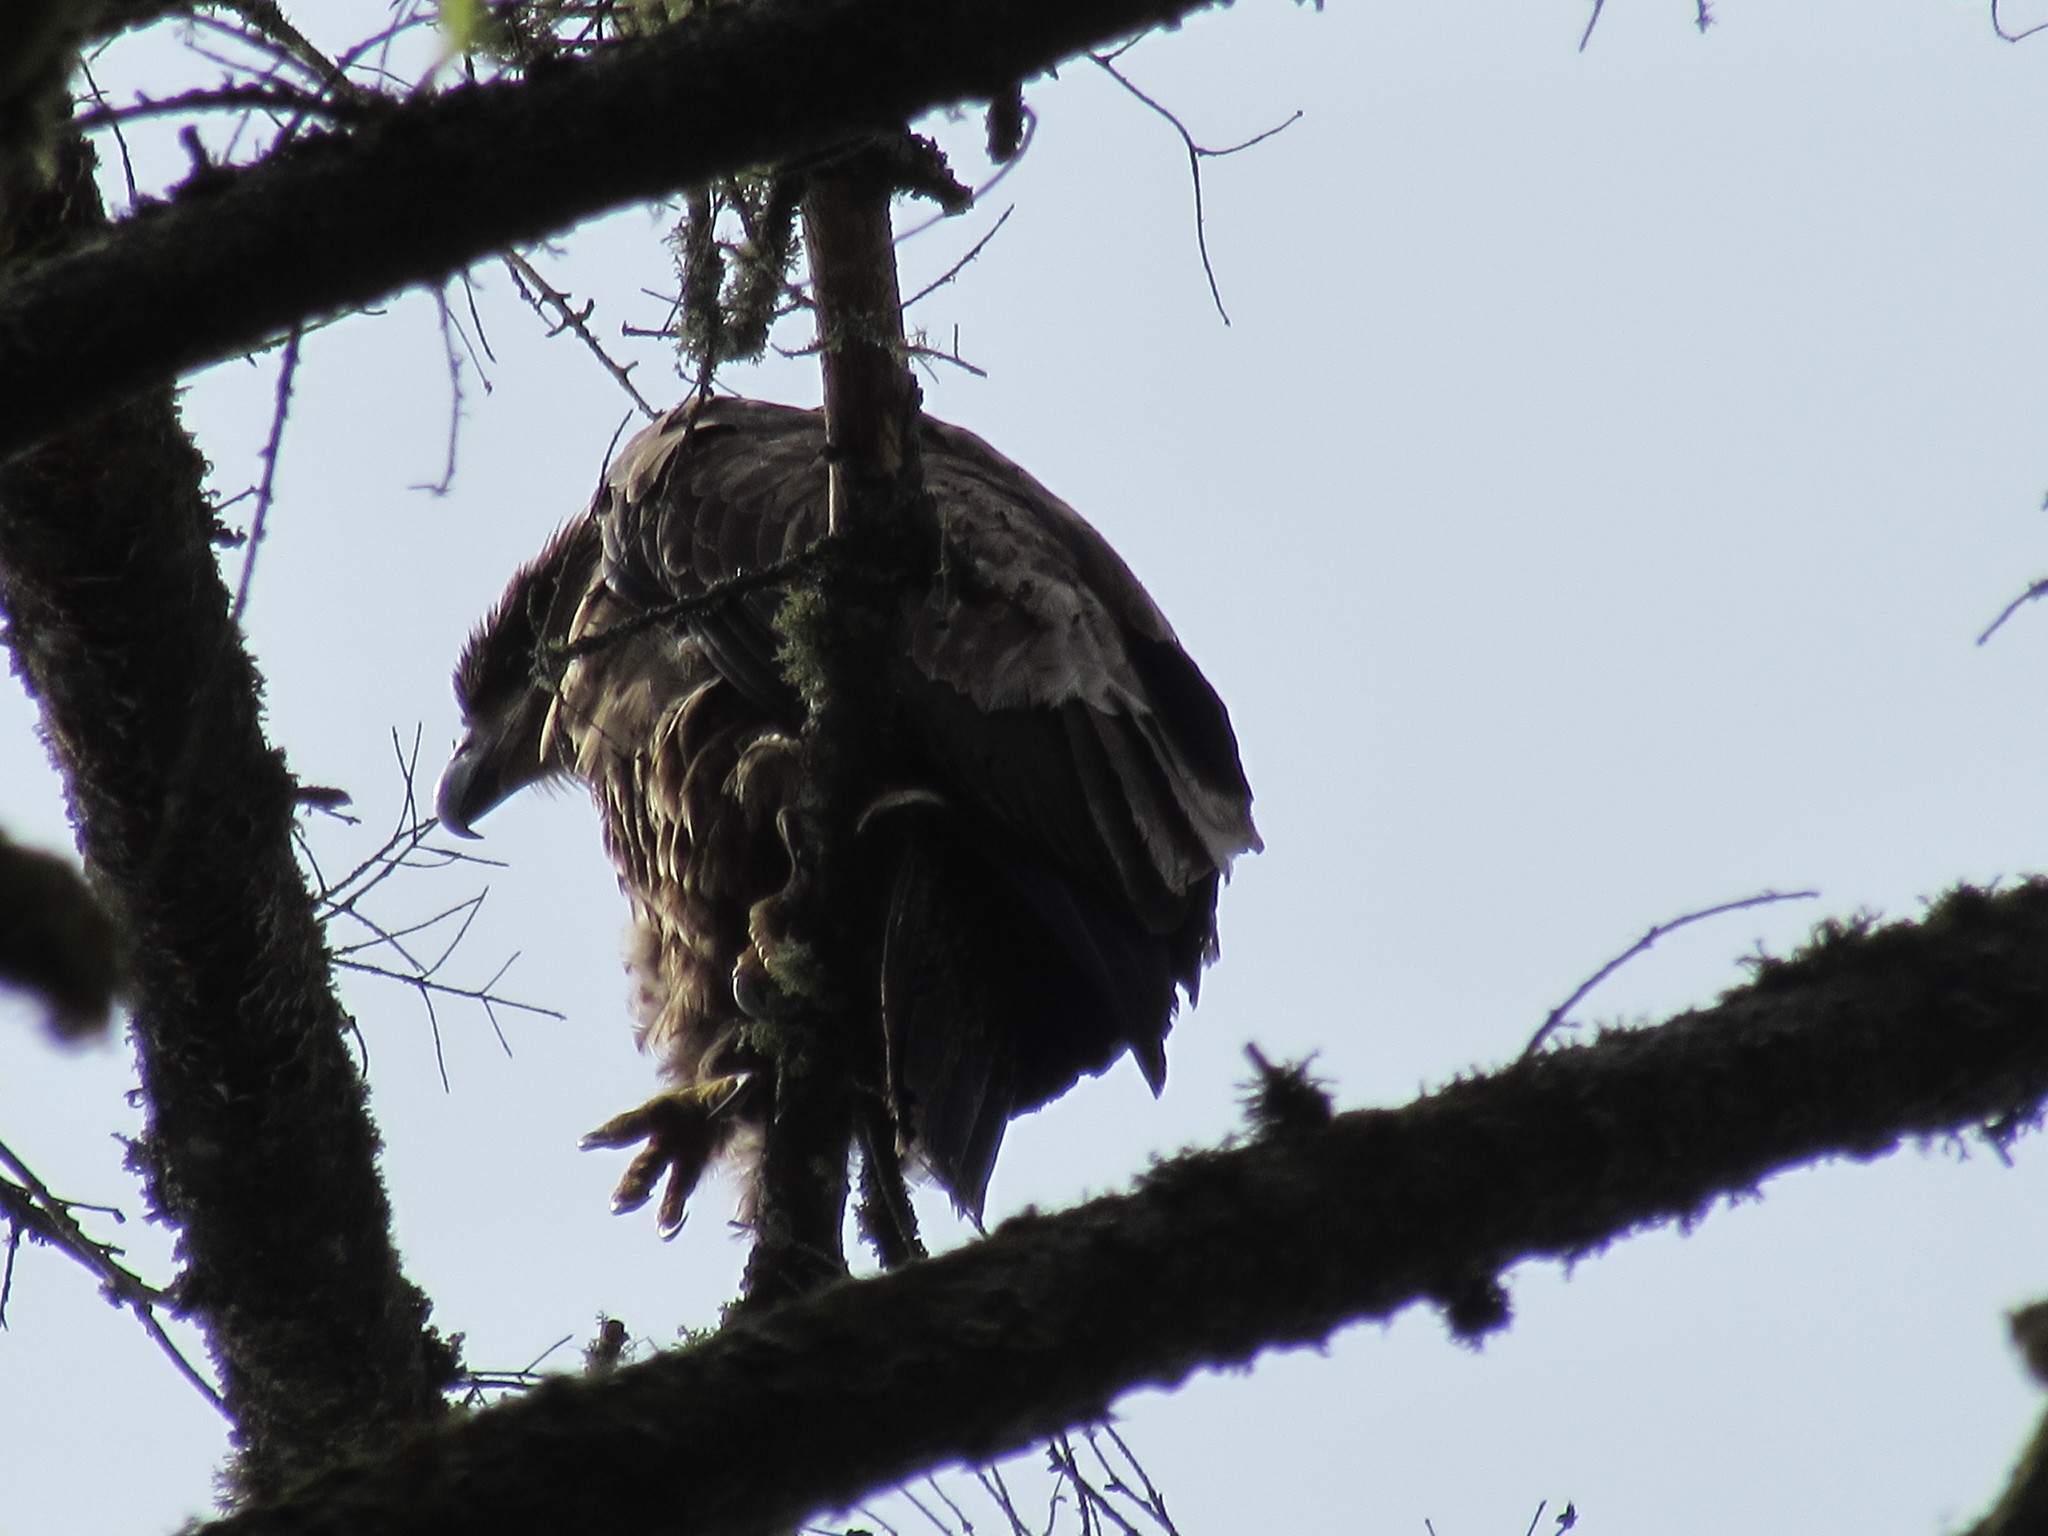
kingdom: Animalia
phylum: Chordata
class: Aves
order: Accipitriformes
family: Accipitridae
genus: Haliaeetus
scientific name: Haliaeetus leucocephalus
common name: Bald eagle
